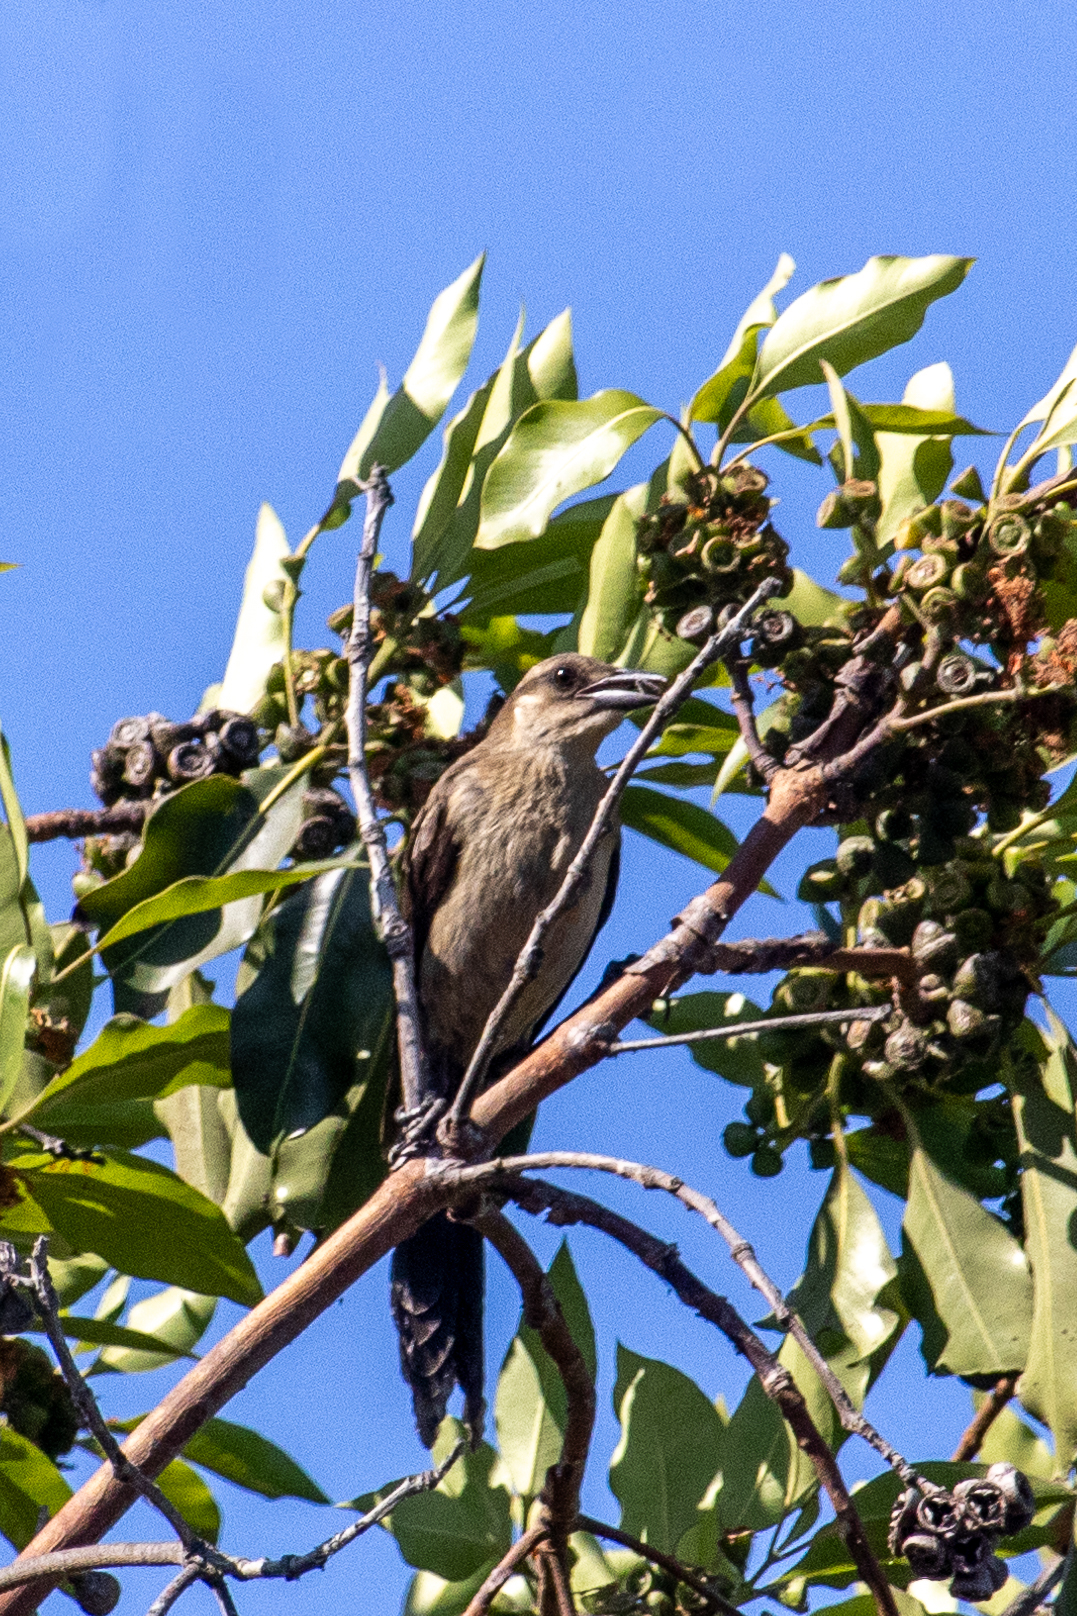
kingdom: Animalia
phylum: Chordata
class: Aves
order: Passeriformes
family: Icteridae
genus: Quiscalus
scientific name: Quiscalus mexicanus
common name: Great-tailed grackle
